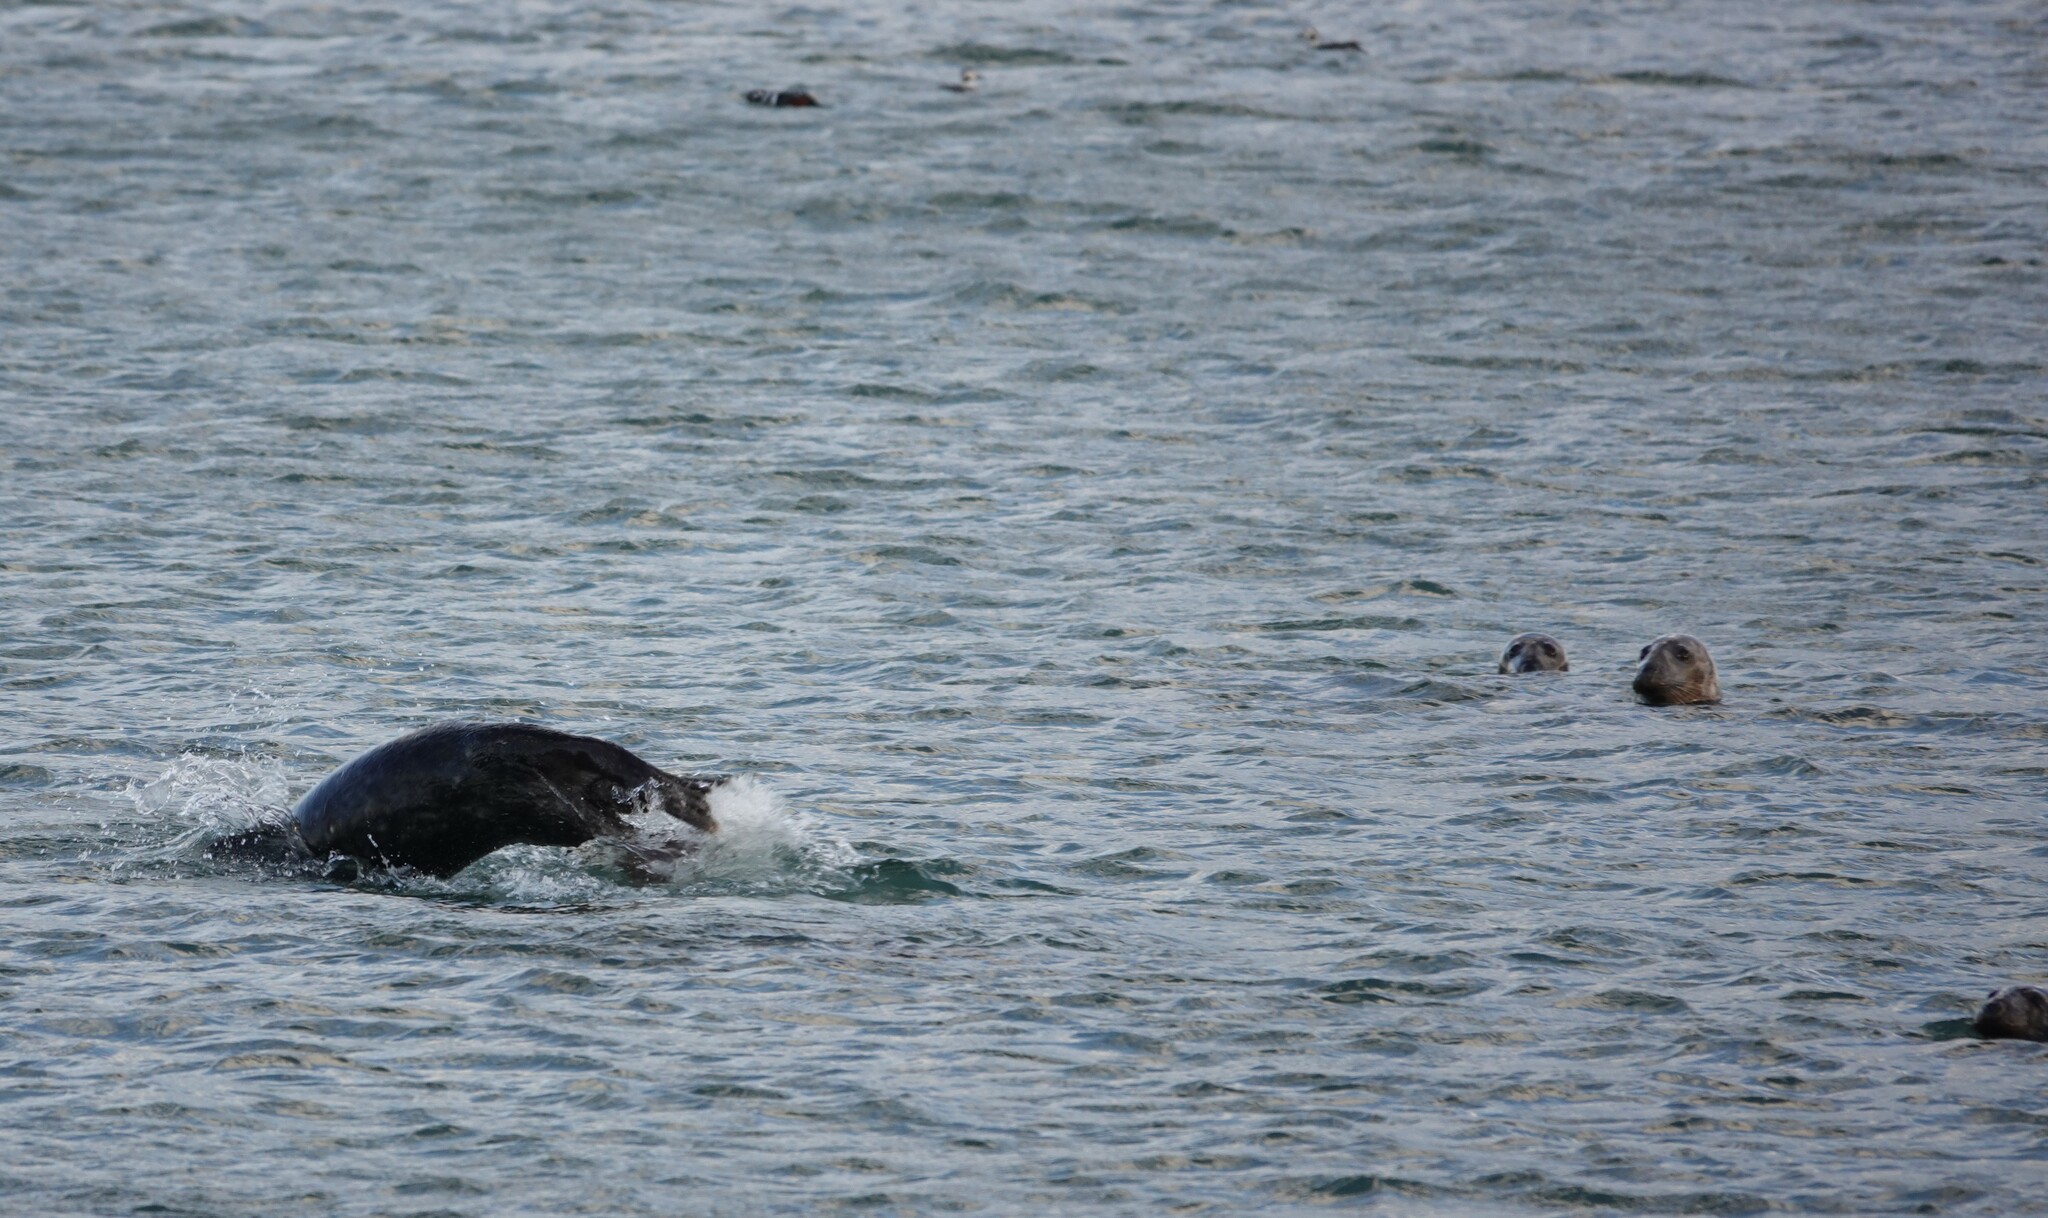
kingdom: Animalia
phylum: Chordata
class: Mammalia
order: Carnivora
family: Phocidae
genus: Halichoerus
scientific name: Halichoerus grypus
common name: Grey seal
